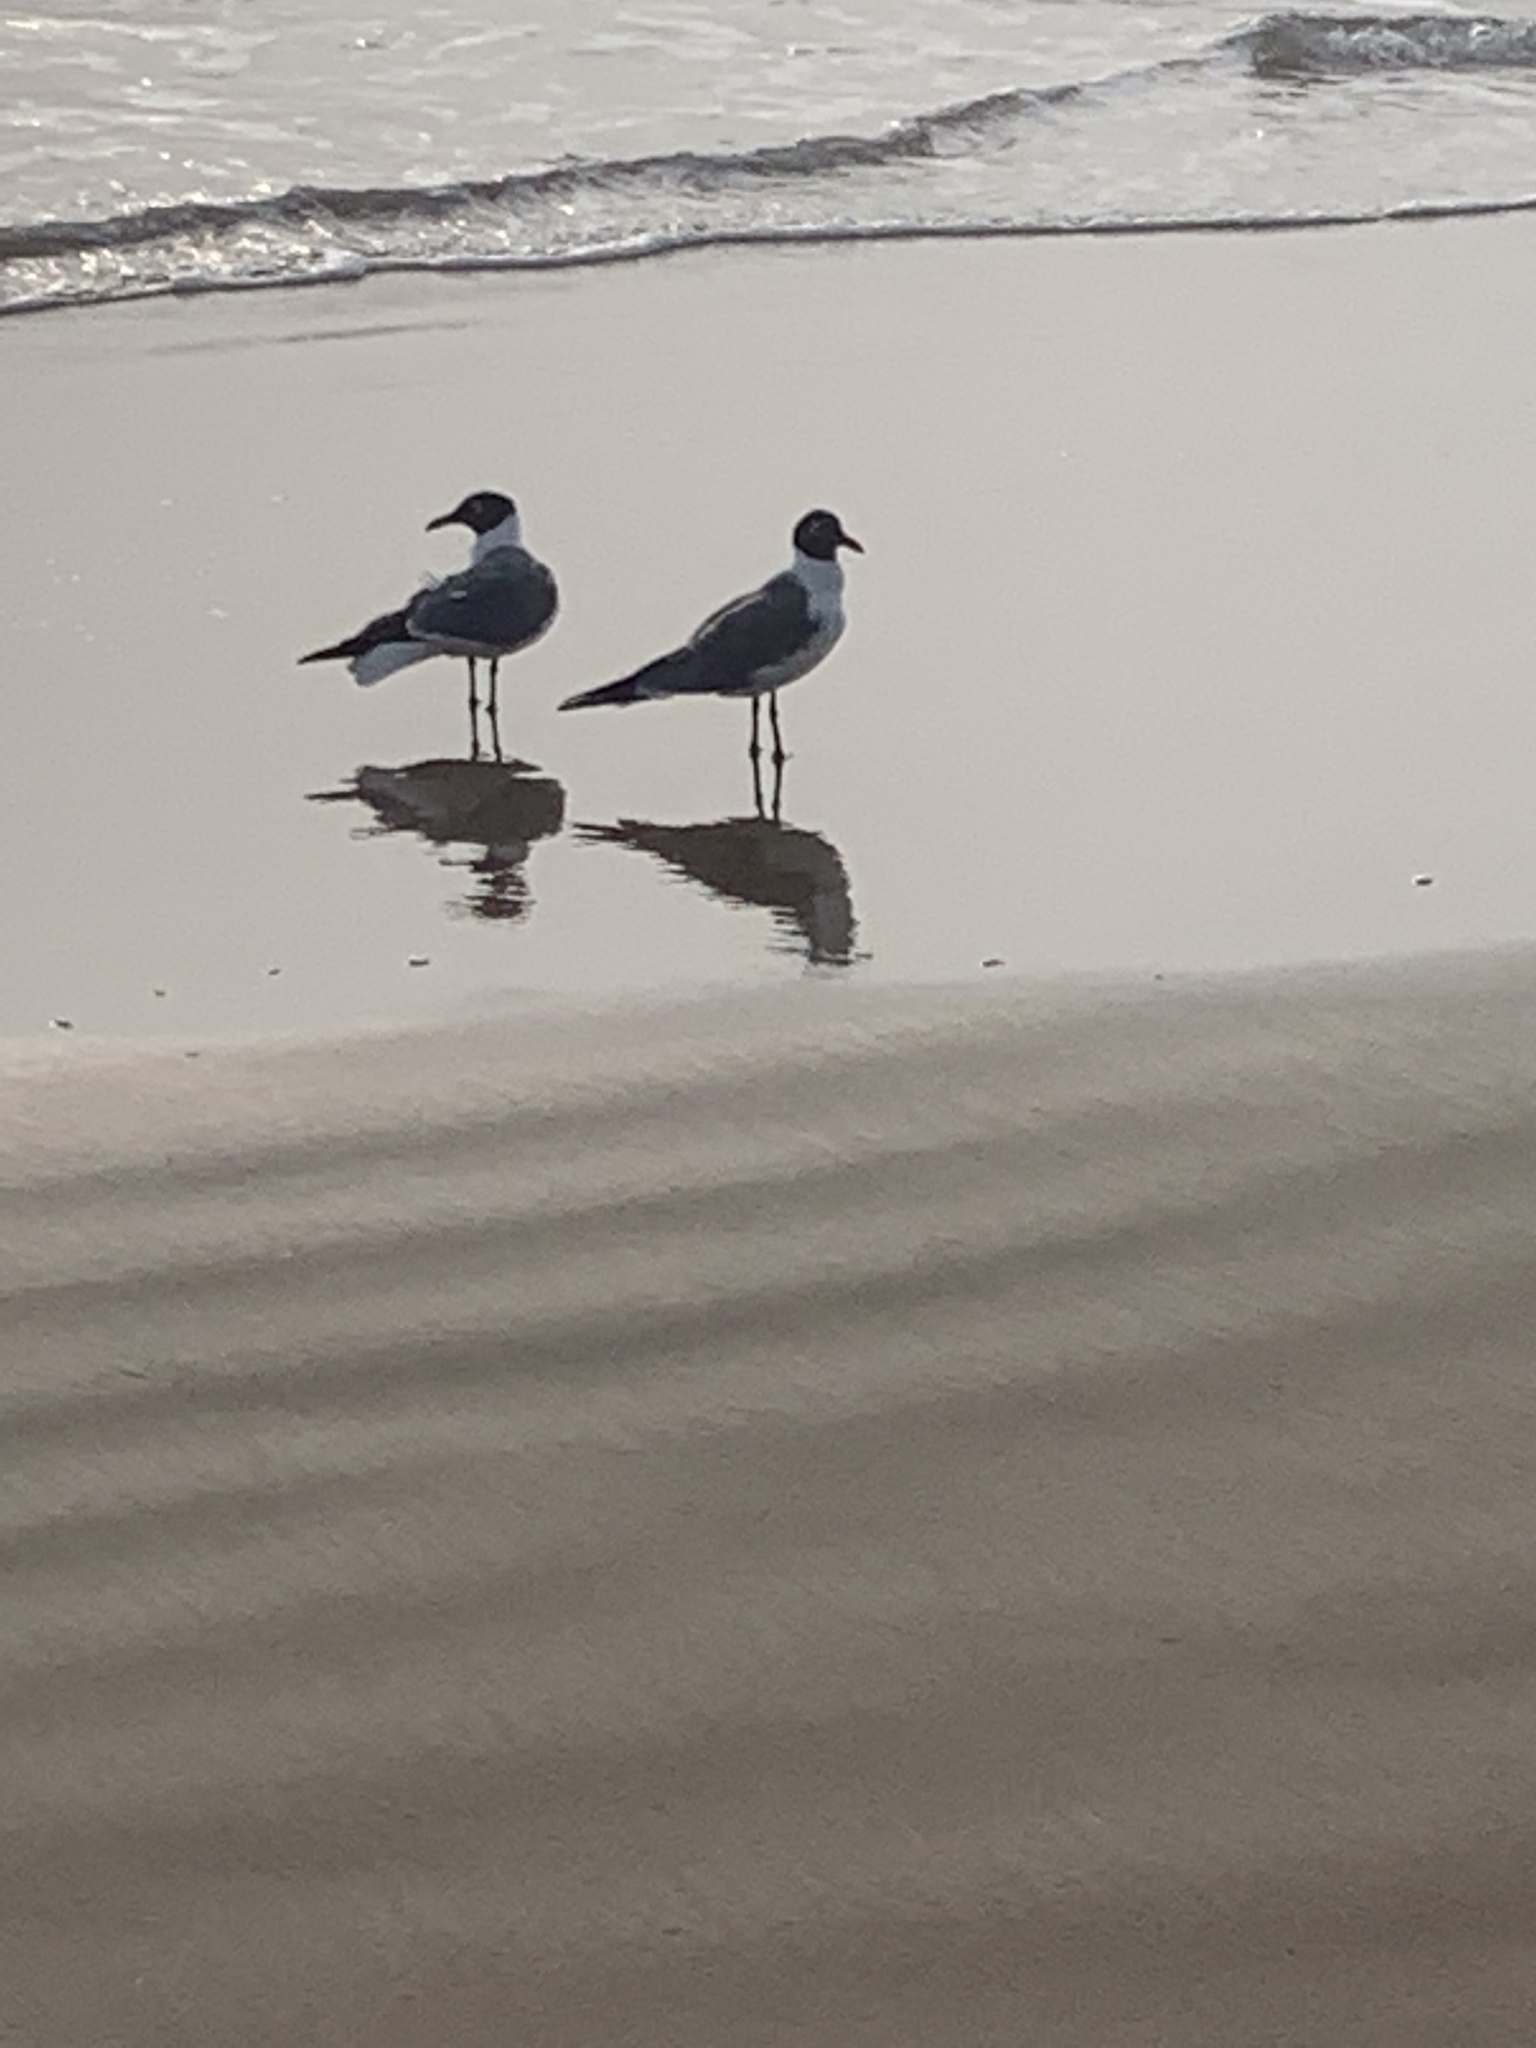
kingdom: Animalia
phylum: Chordata
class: Aves
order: Charadriiformes
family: Laridae
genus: Leucophaeus
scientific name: Leucophaeus atricilla
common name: Laughing gull
